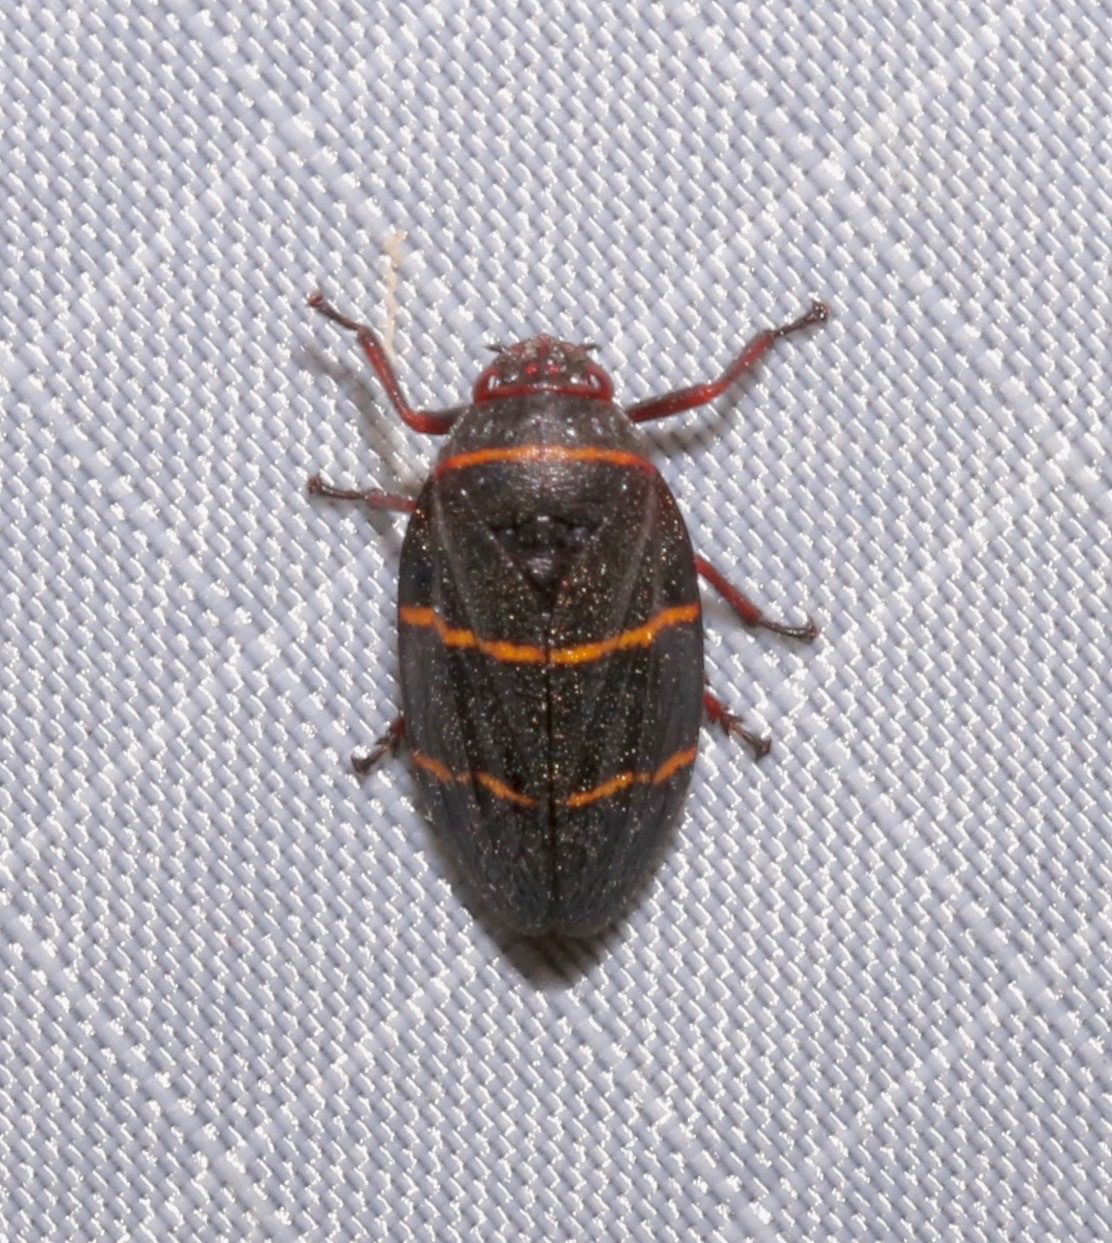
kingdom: Animalia
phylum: Arthropoda
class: Insecta
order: Hemiptera
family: Cercopidae
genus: Prosapia
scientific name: Prosapia bicincta
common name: Twolined spittlebug
